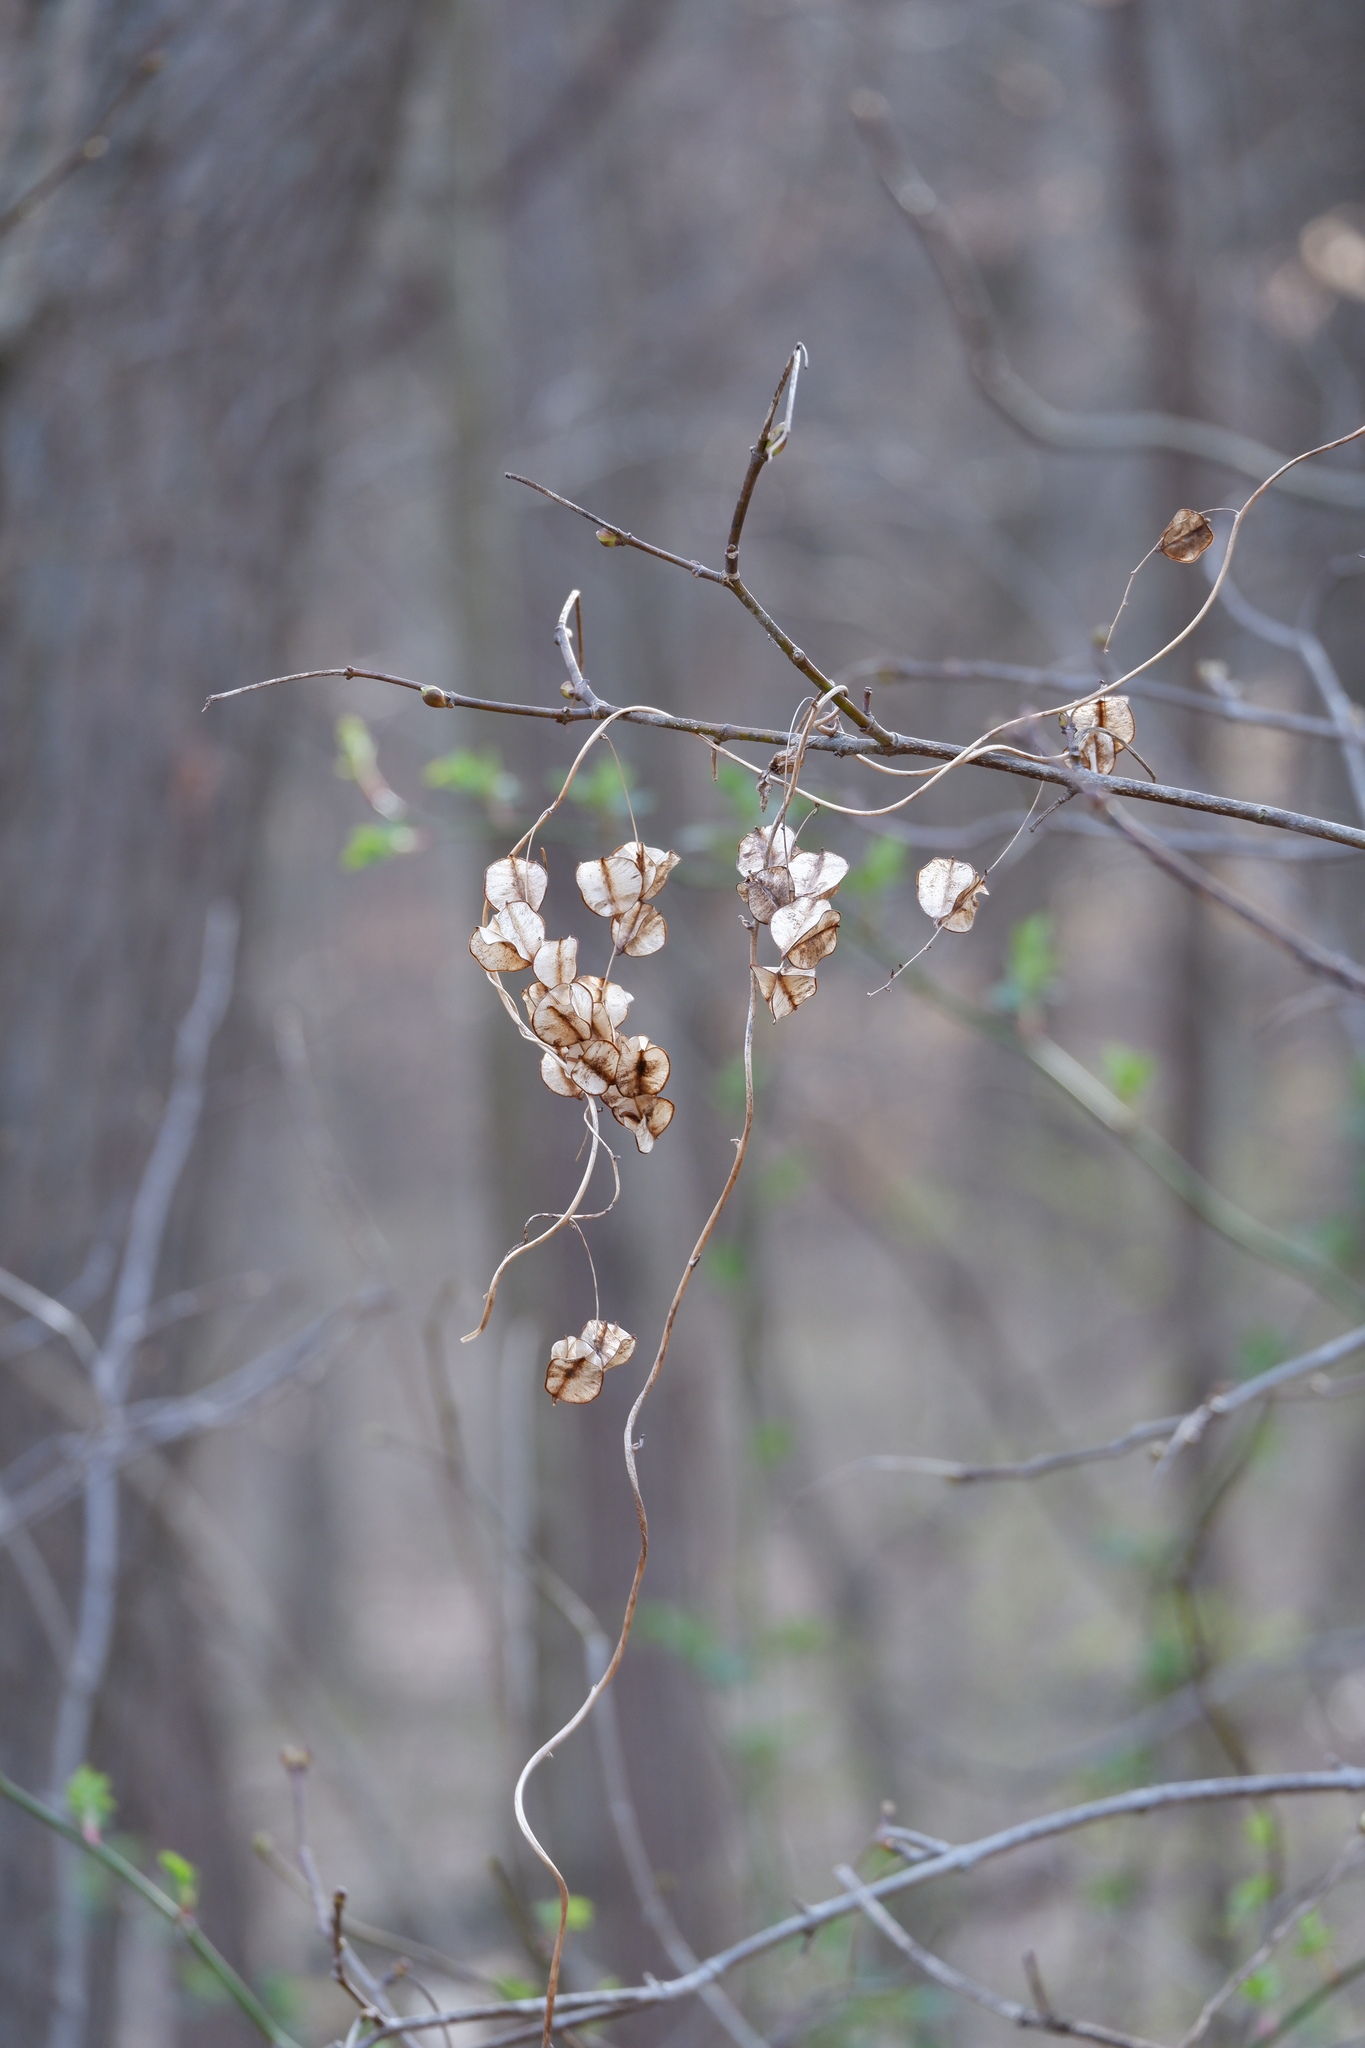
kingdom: Plantae
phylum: Tracheophyta
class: Liliopsida
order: Dioscoreales
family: Dioscoreaceae
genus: Dioscorea
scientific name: Dioscorea villosa
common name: Wild yam
